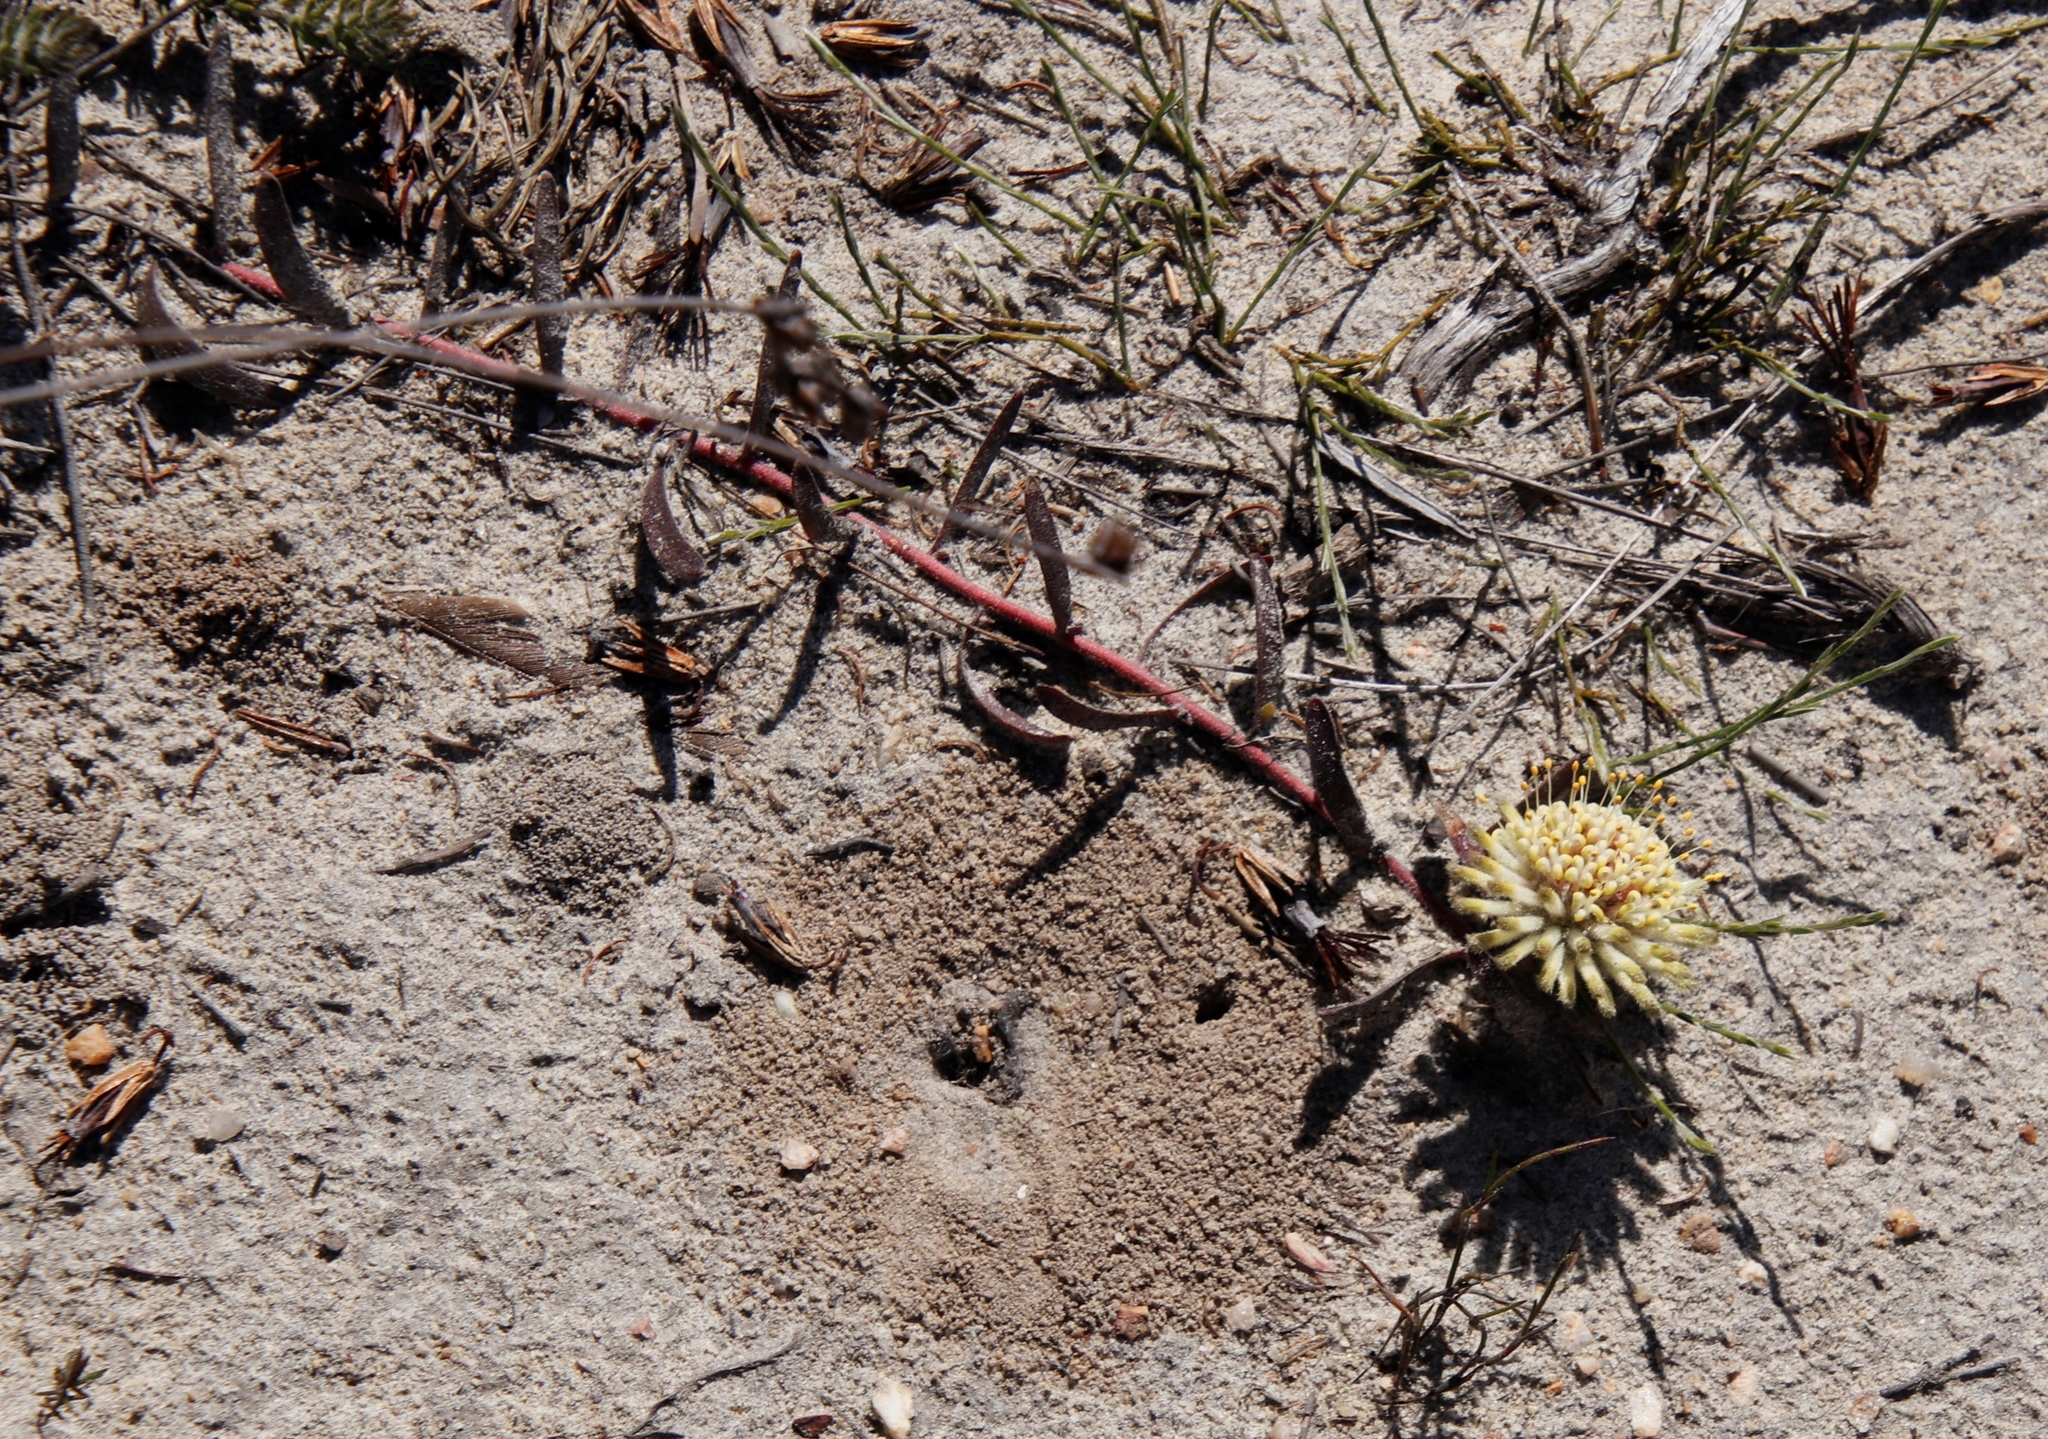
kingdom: Plantae
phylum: Tracheophyta
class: Magnoliopsida
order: Proteales
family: Proteaceae
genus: Leucospermum
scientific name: Leucospermum hypophyllocarpodendron
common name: Snakestem pincushion
